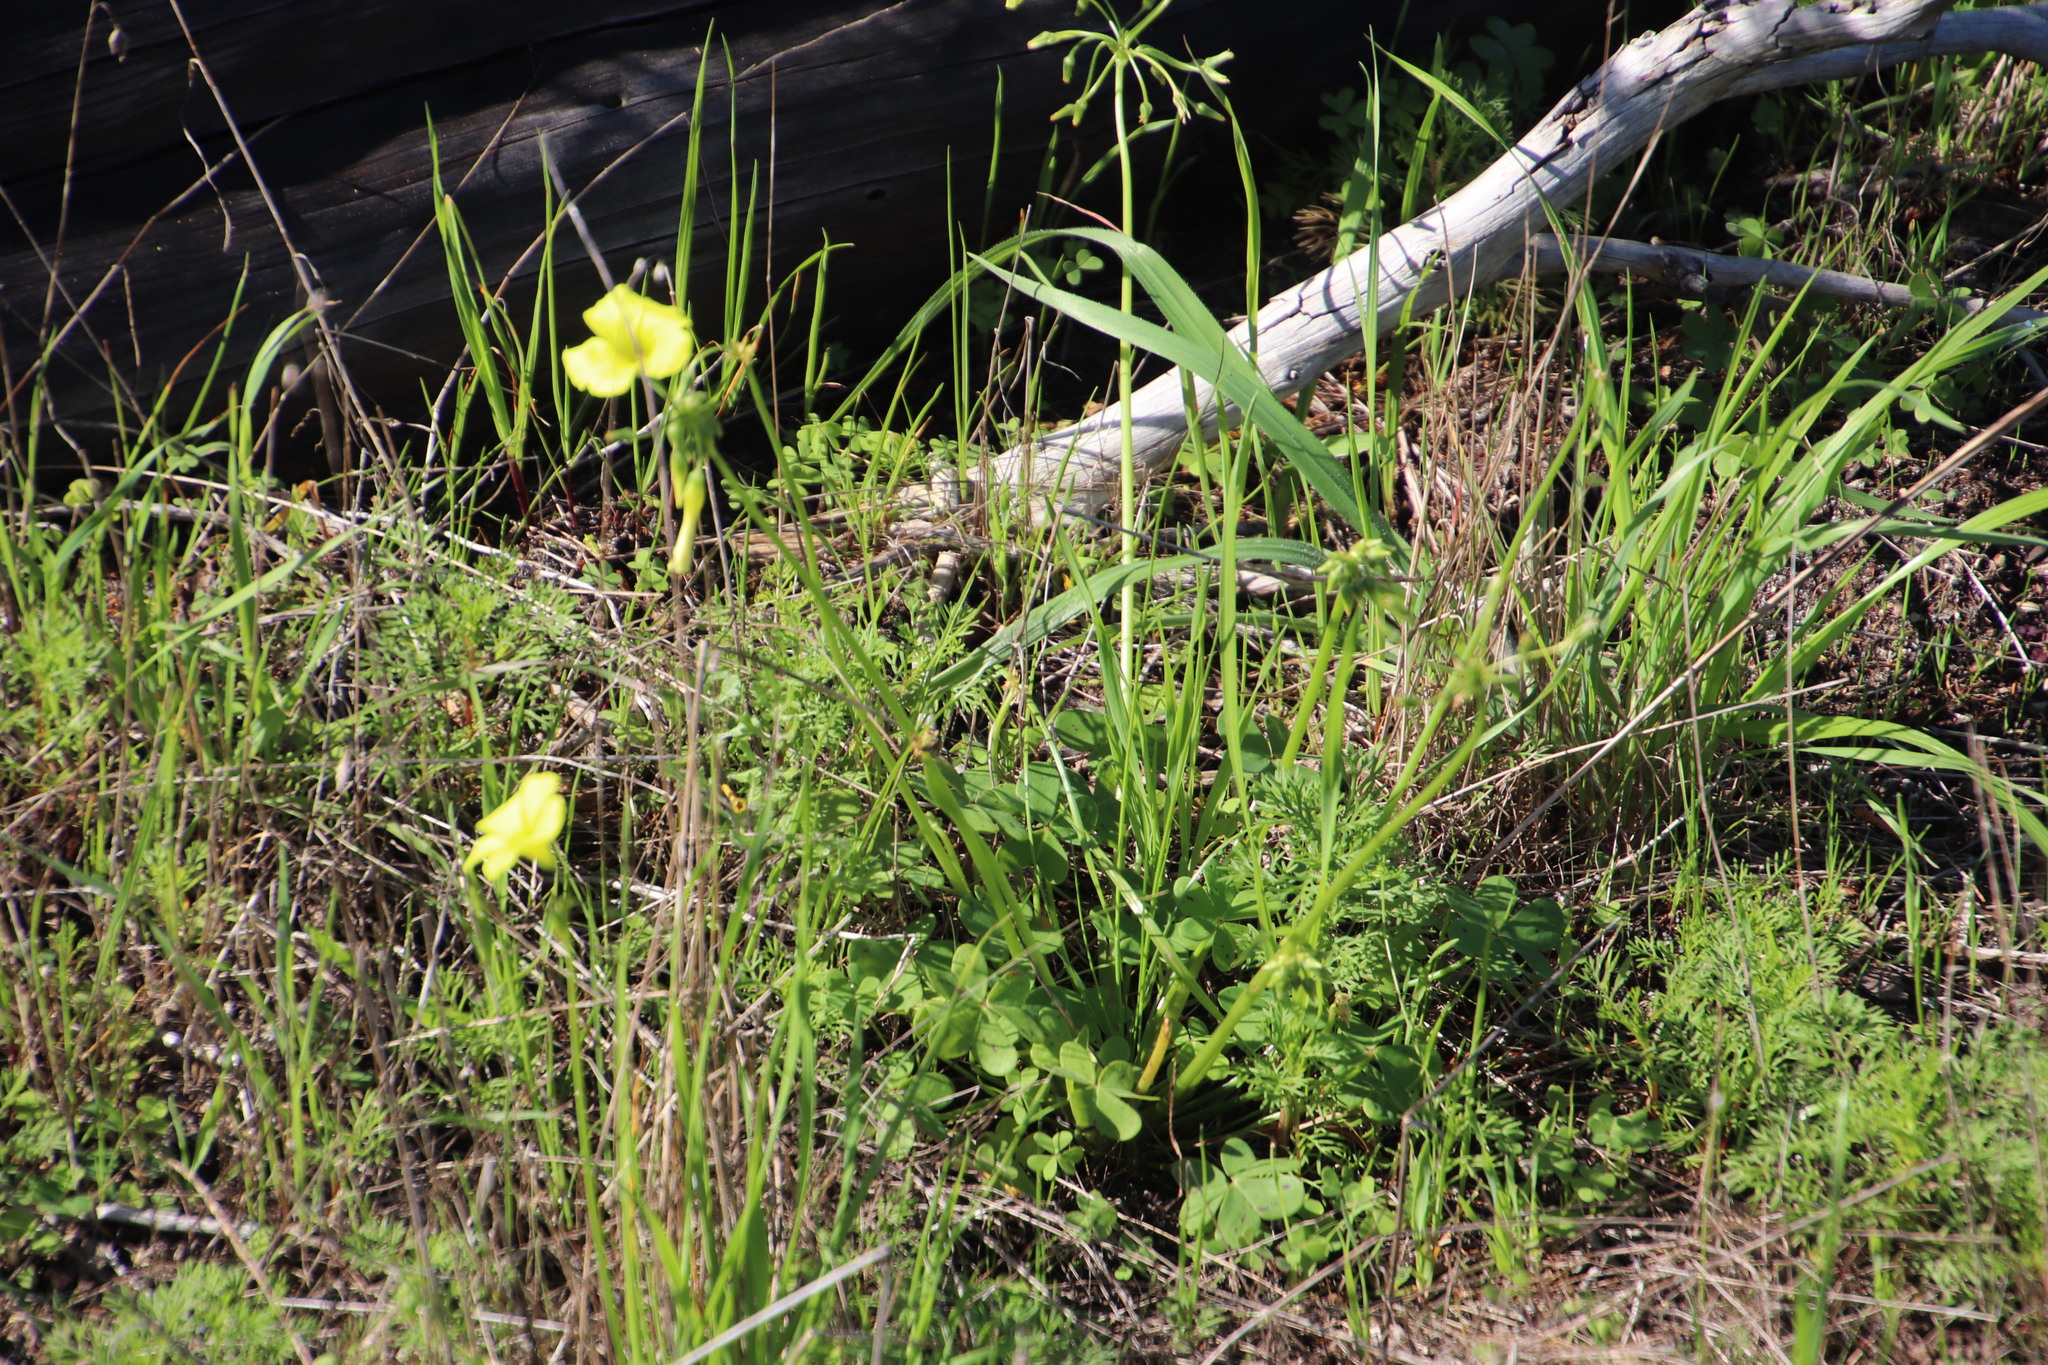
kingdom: Plantae
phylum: Tracheophyta
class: Magnoliopsida
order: Oxalidales
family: Oxalidaceae
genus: Oxalis
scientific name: Oxalis pes-caprae
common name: Bermuda-buttercup
